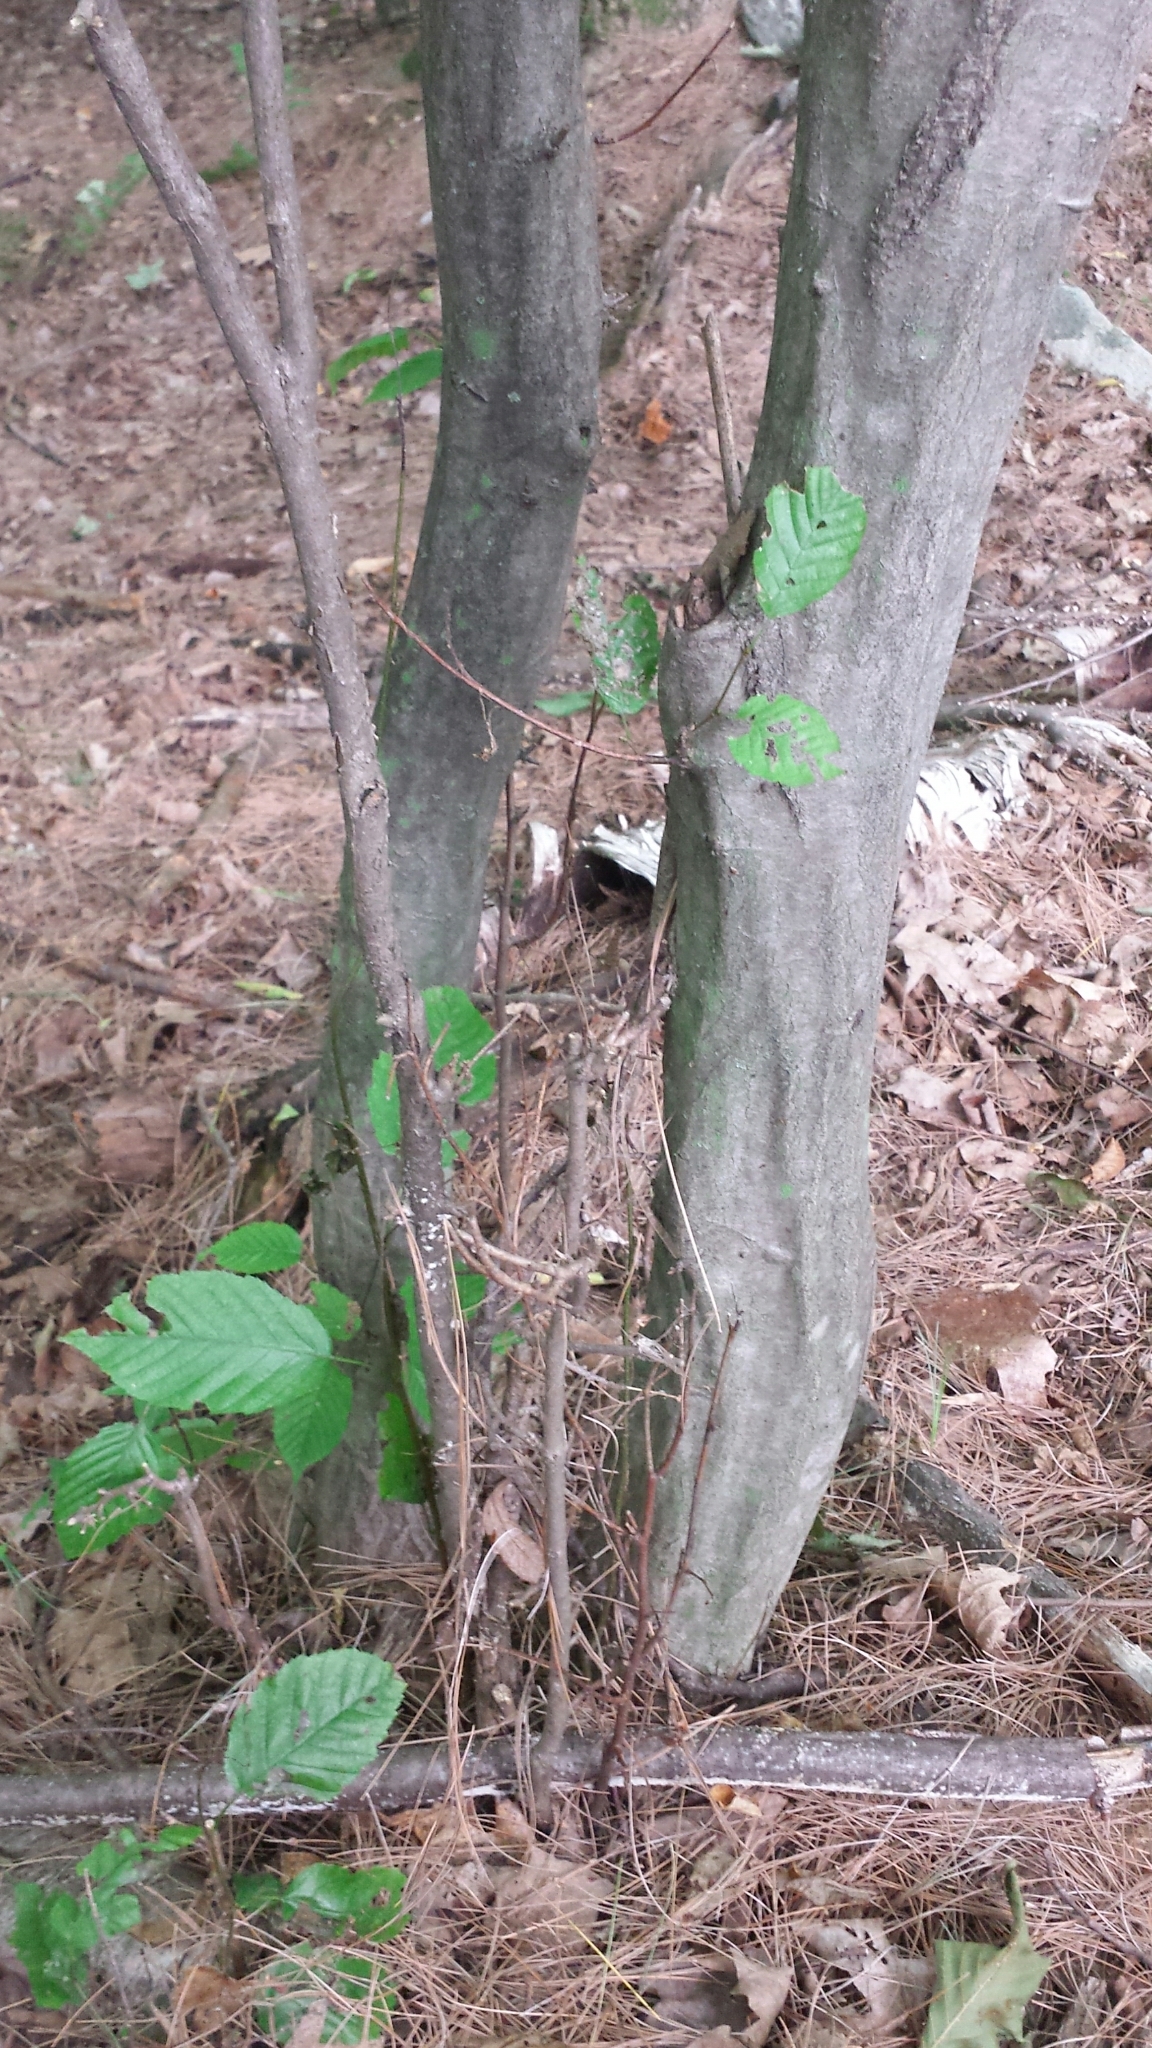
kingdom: Plantae
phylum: Tracheophyta
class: Magnoliopsida
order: Fagales
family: Betulaceae
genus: Carpinus
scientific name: Carpinus caroliniana
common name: American hornbeam
